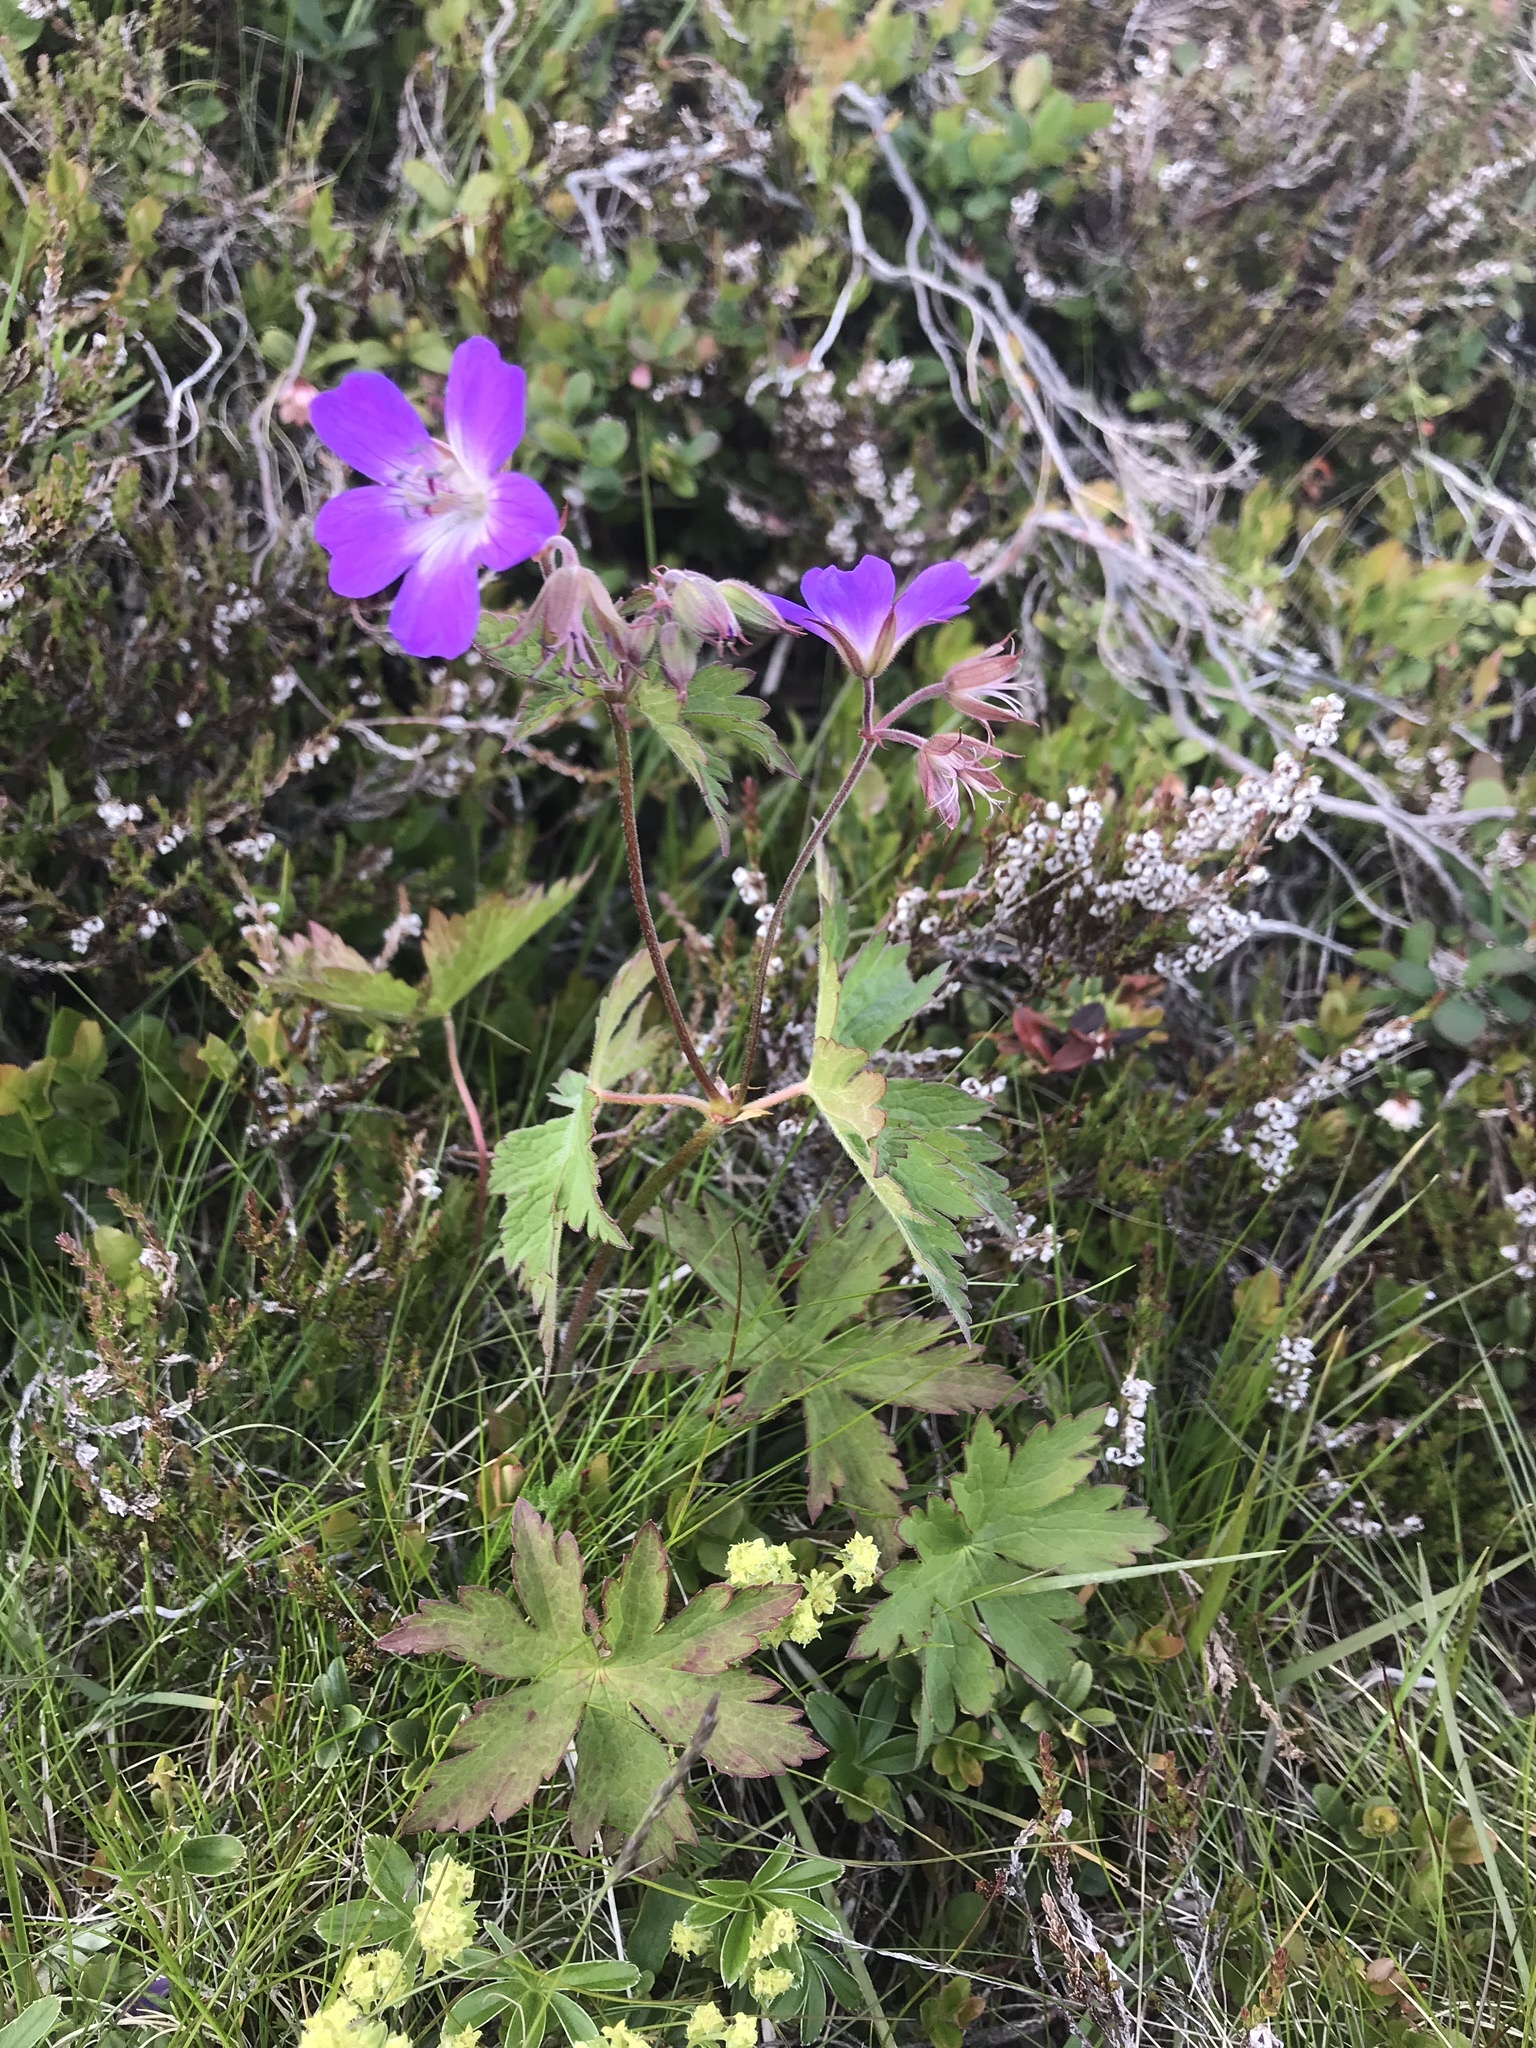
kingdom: Plantae
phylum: Tracheophyta
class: Magnoliopsida
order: Geraniales
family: Geraniaceae
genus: Geranium
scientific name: Geranium sylvaticum
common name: Wood crane's-bill
